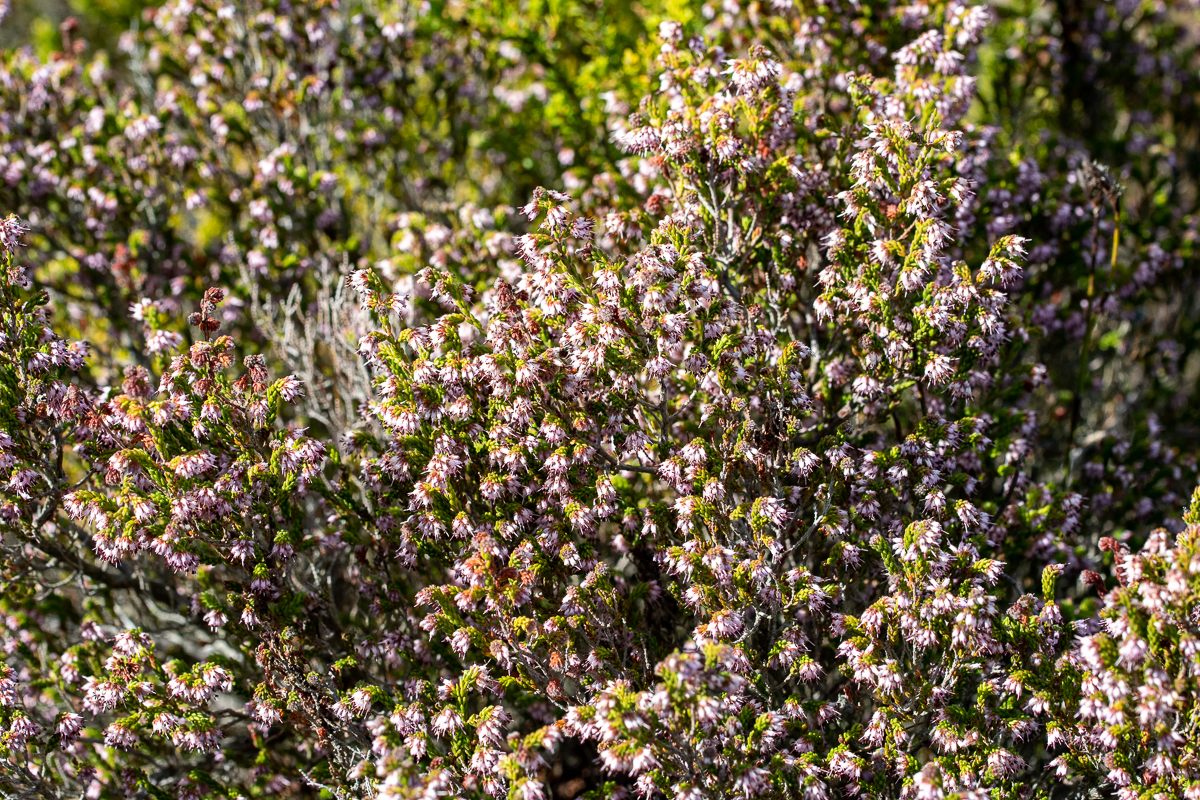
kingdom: Plantae
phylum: Tracheophyta
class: Magnoliopsida
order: Ericales
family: Ericaceae
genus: Erica
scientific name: Erica ericoides
